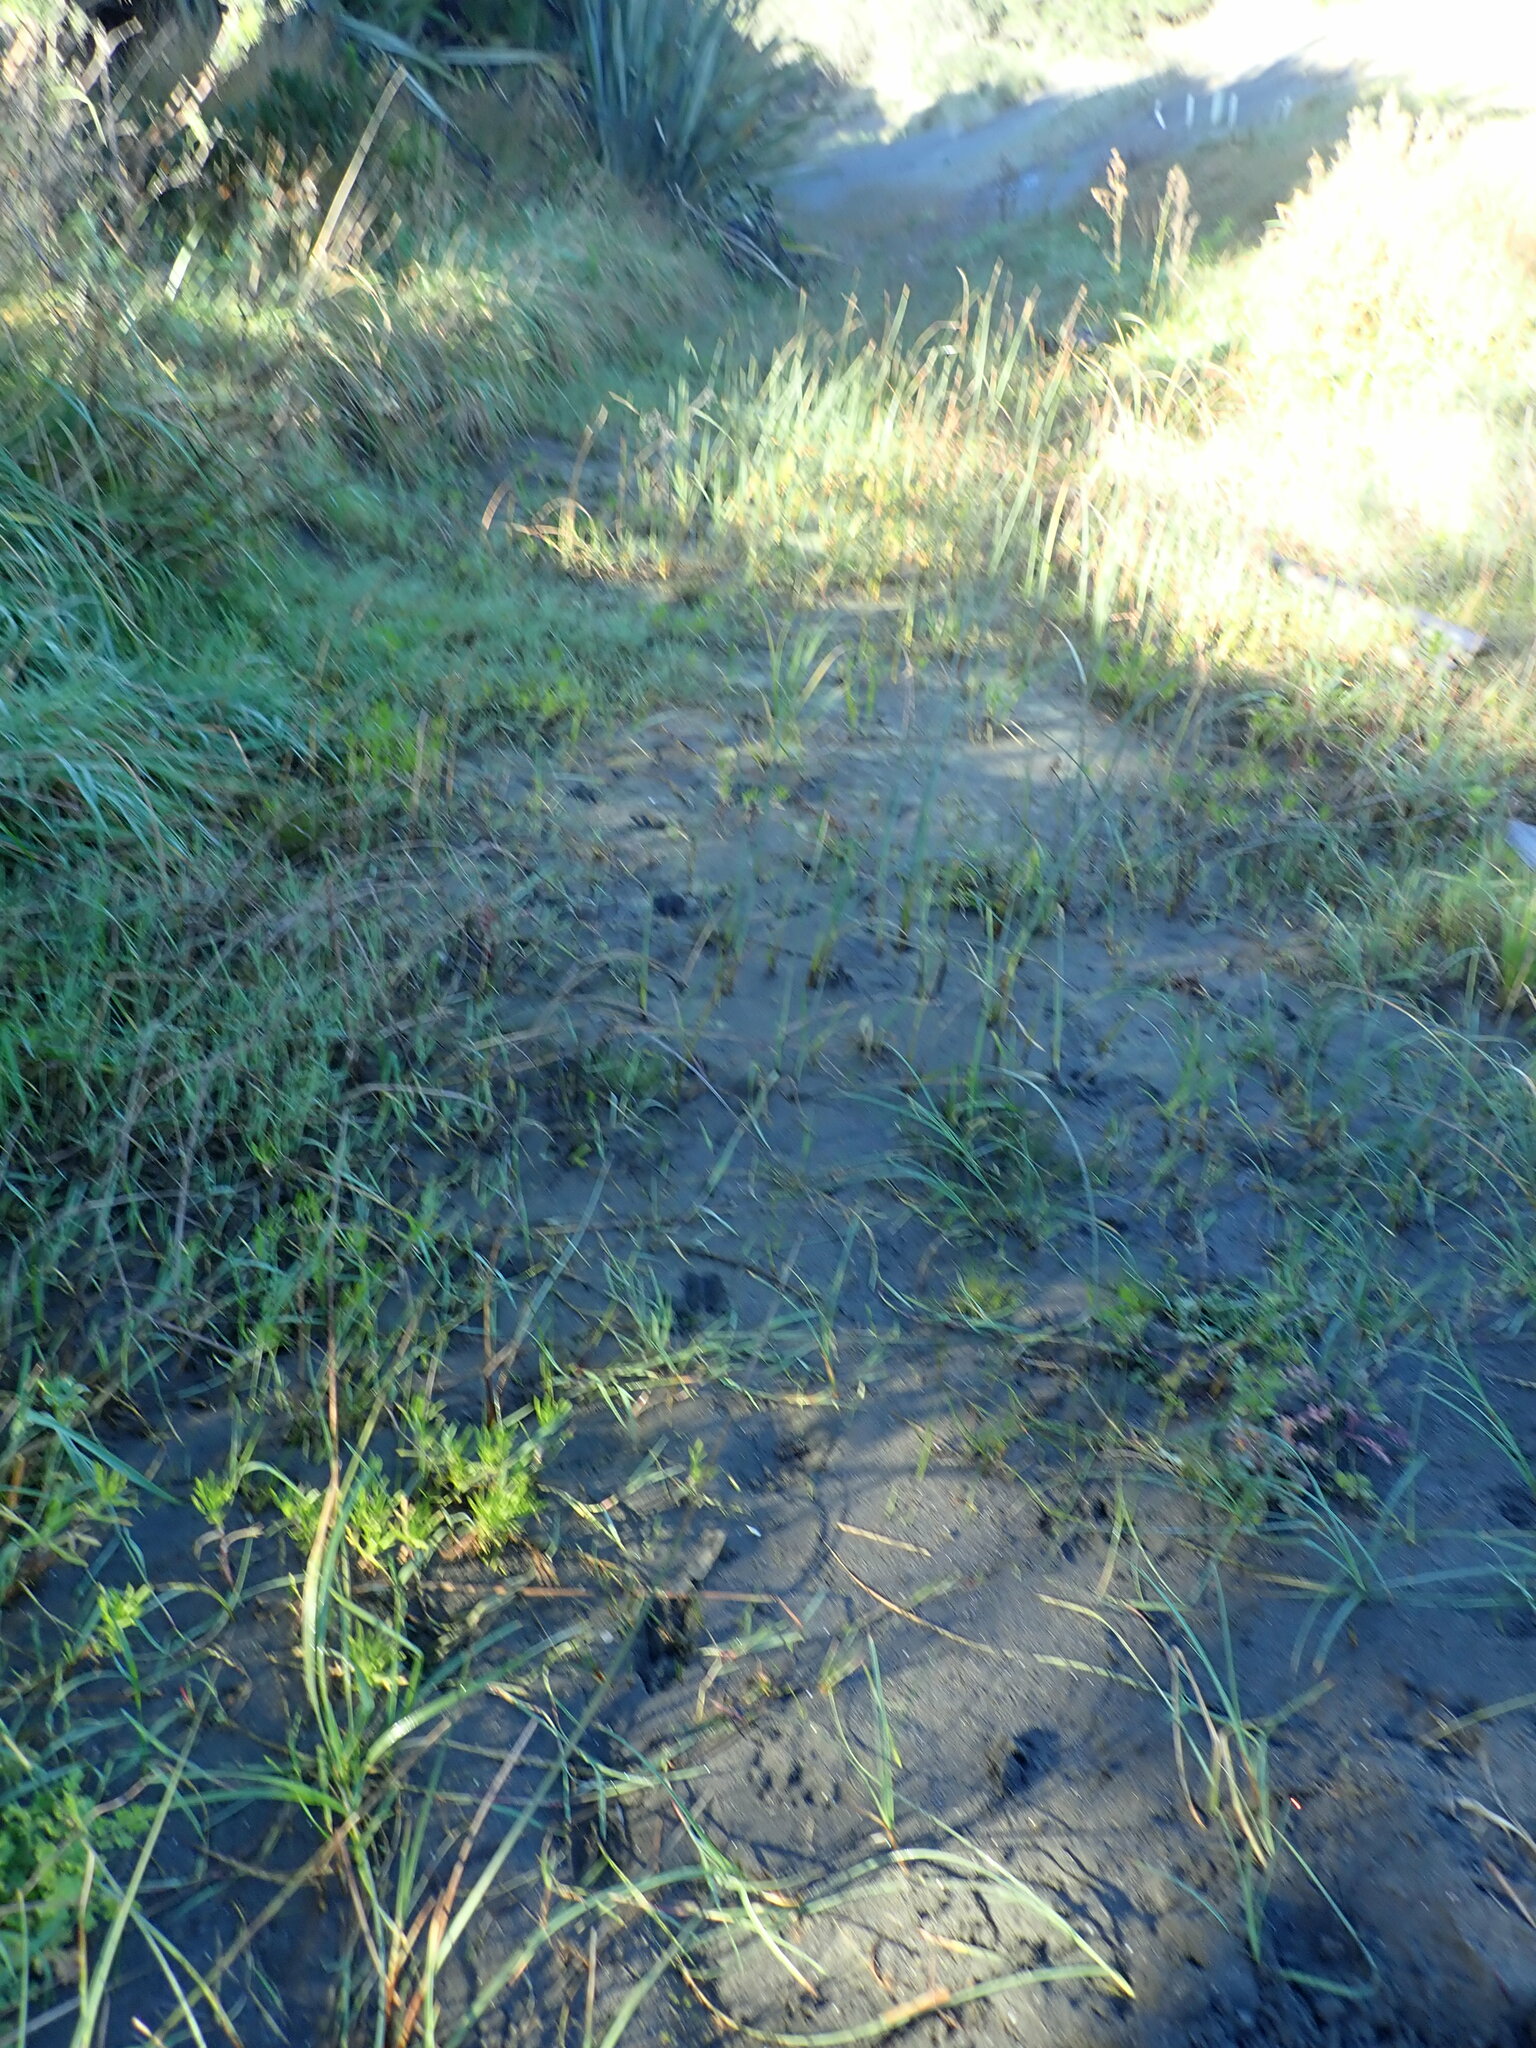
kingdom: Animalia
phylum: Chordata
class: Mammalia
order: Artiodactyla
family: Cervidae
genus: Rusa
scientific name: Rusa unicolor
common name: Sambar
